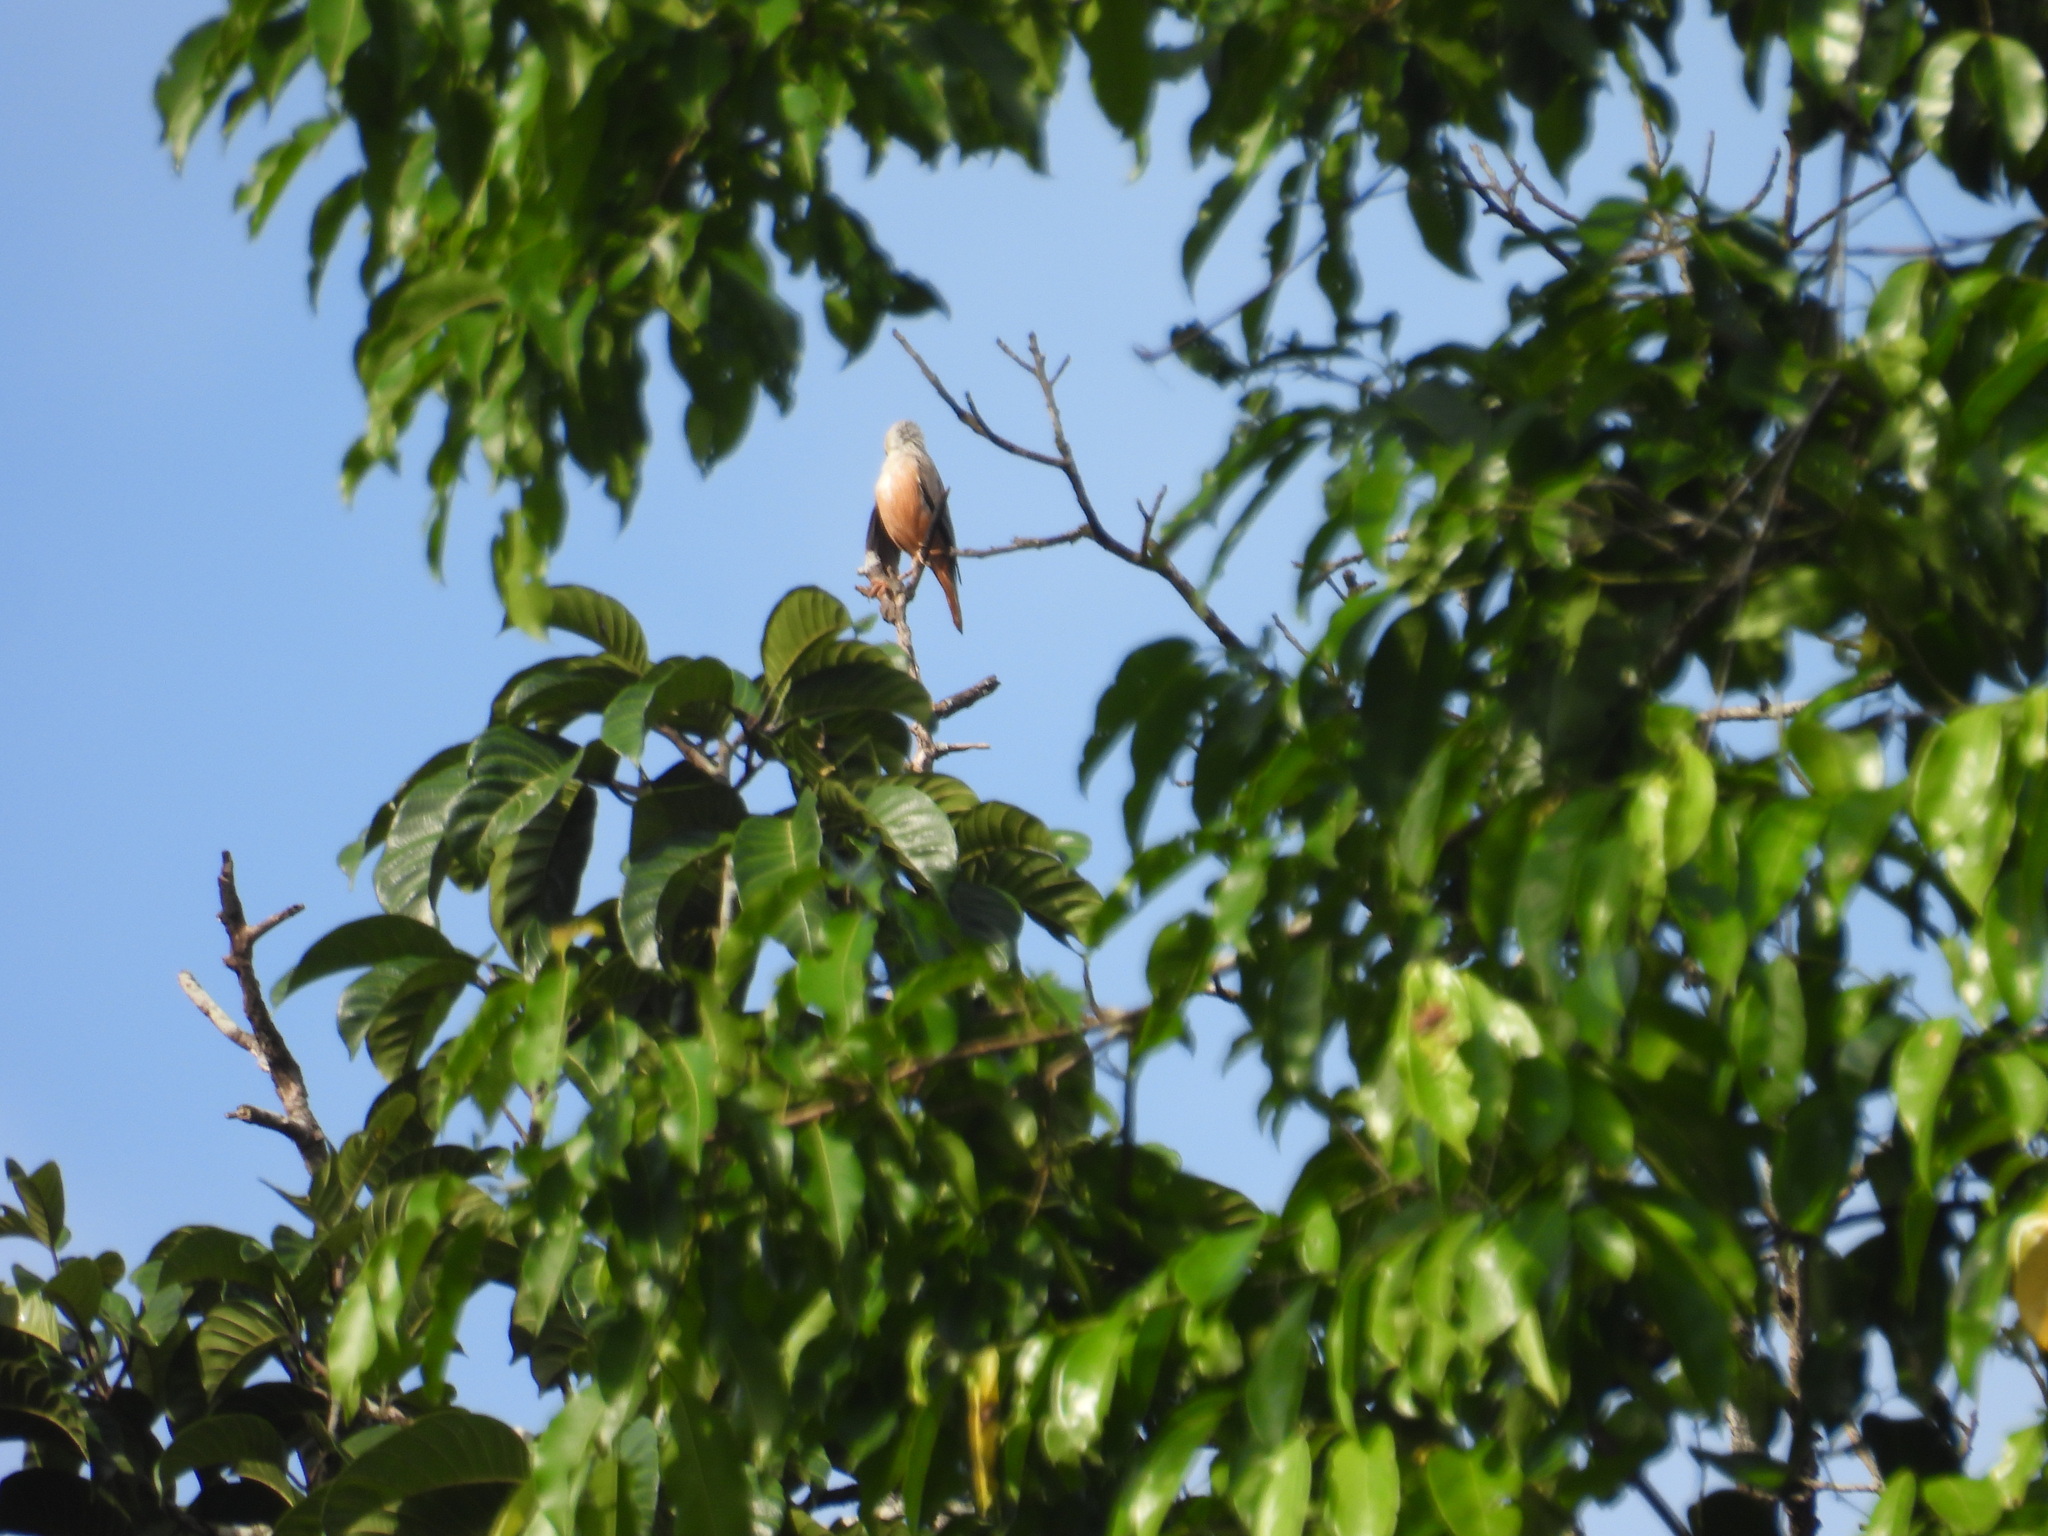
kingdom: Animalia
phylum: Chordata
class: Aves
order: Passeriformes
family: Sturnidae
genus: Sturnia
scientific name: Sturnia blythii
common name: Malabar starling
